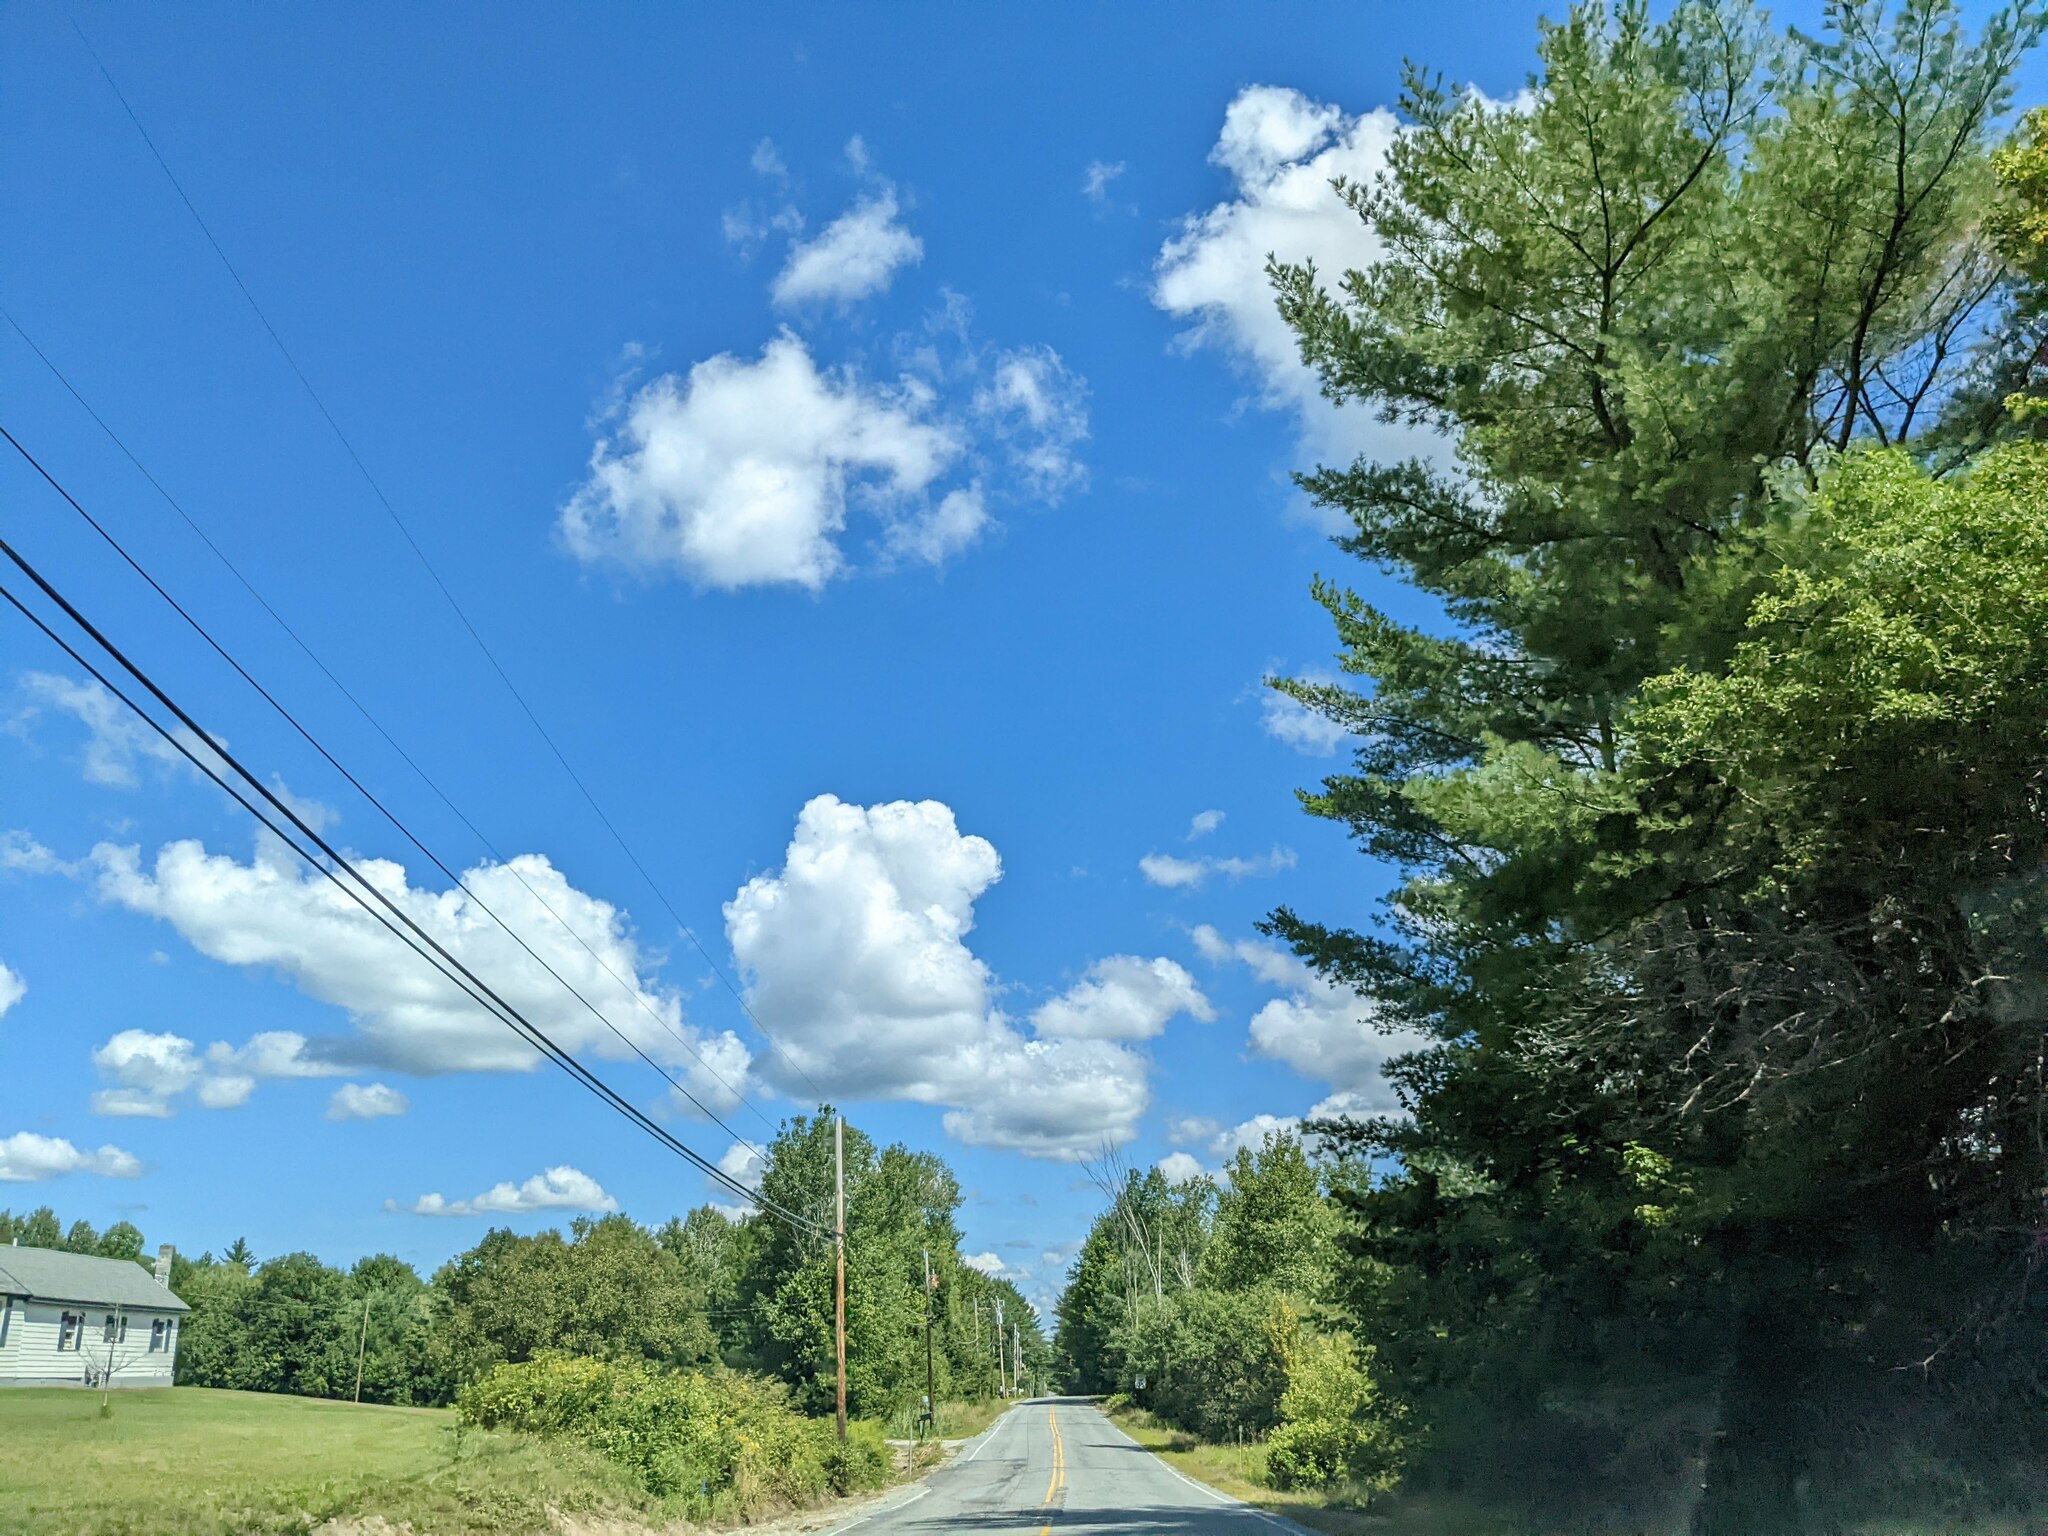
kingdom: Plantae
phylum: Tracheophyta
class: Pinopsida
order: Pinales
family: Pinaceae
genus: Pinus
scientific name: Pinus strobus
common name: Weymouth pine
